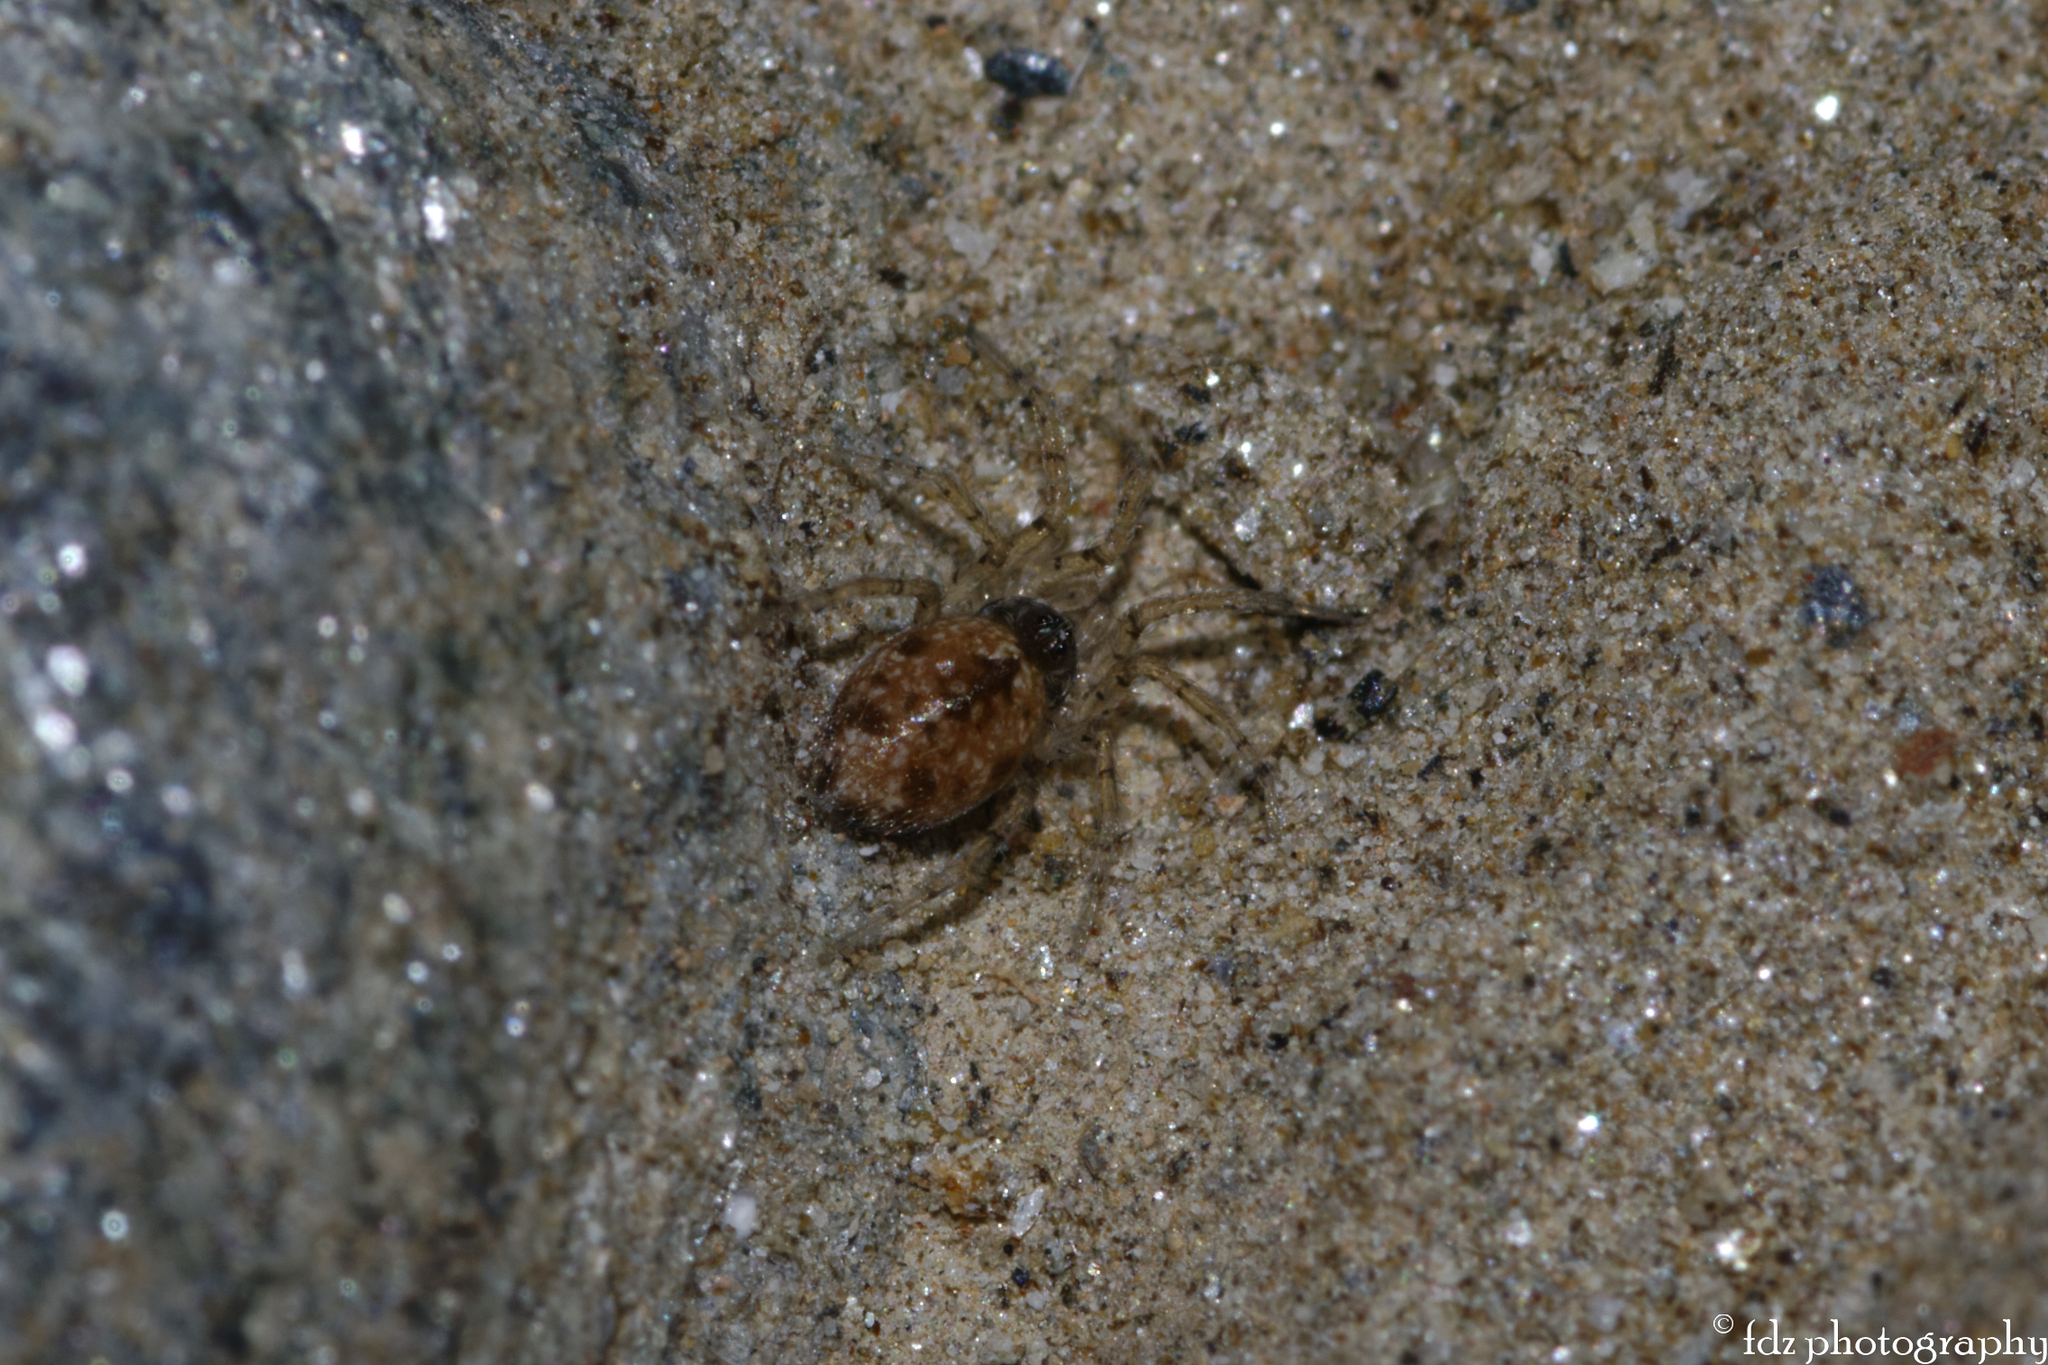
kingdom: Animalia
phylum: Arthropoda
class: Arachnida
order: Araneae
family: Oecobiidae
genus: Oecobius
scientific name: Oecobius maculatus
